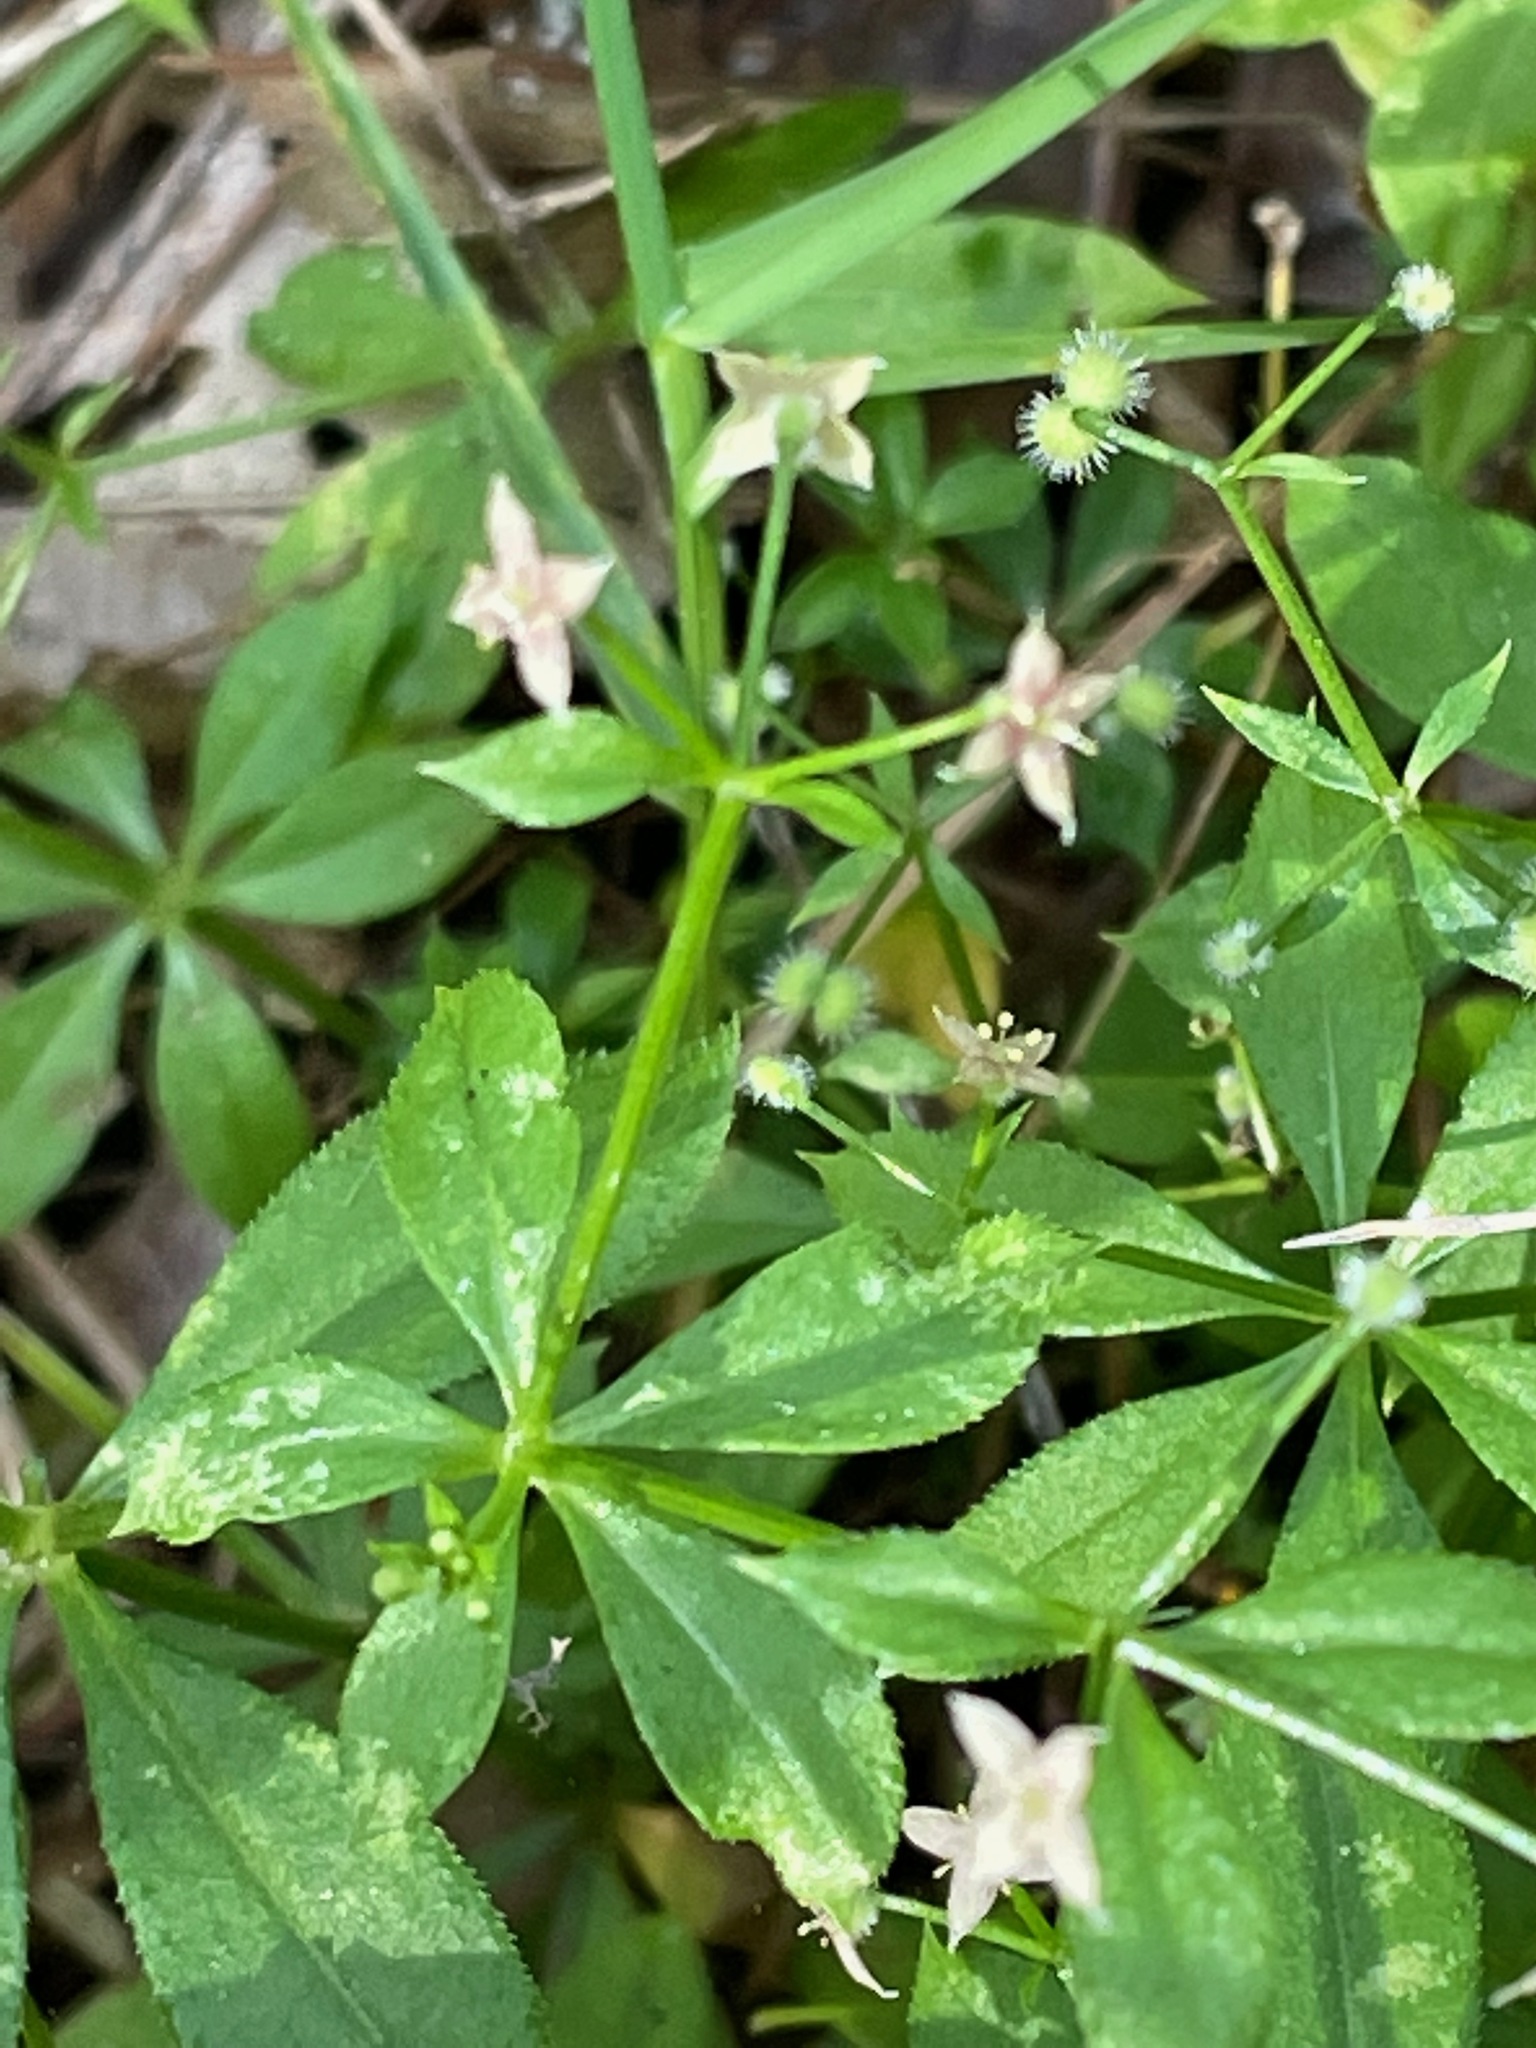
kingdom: Plantae
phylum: Tracheophyta
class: Magnoliopsida
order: Gentianales
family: Rubiaceae
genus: Galium
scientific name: Galium triflorum
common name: Fragrant bedstraw
